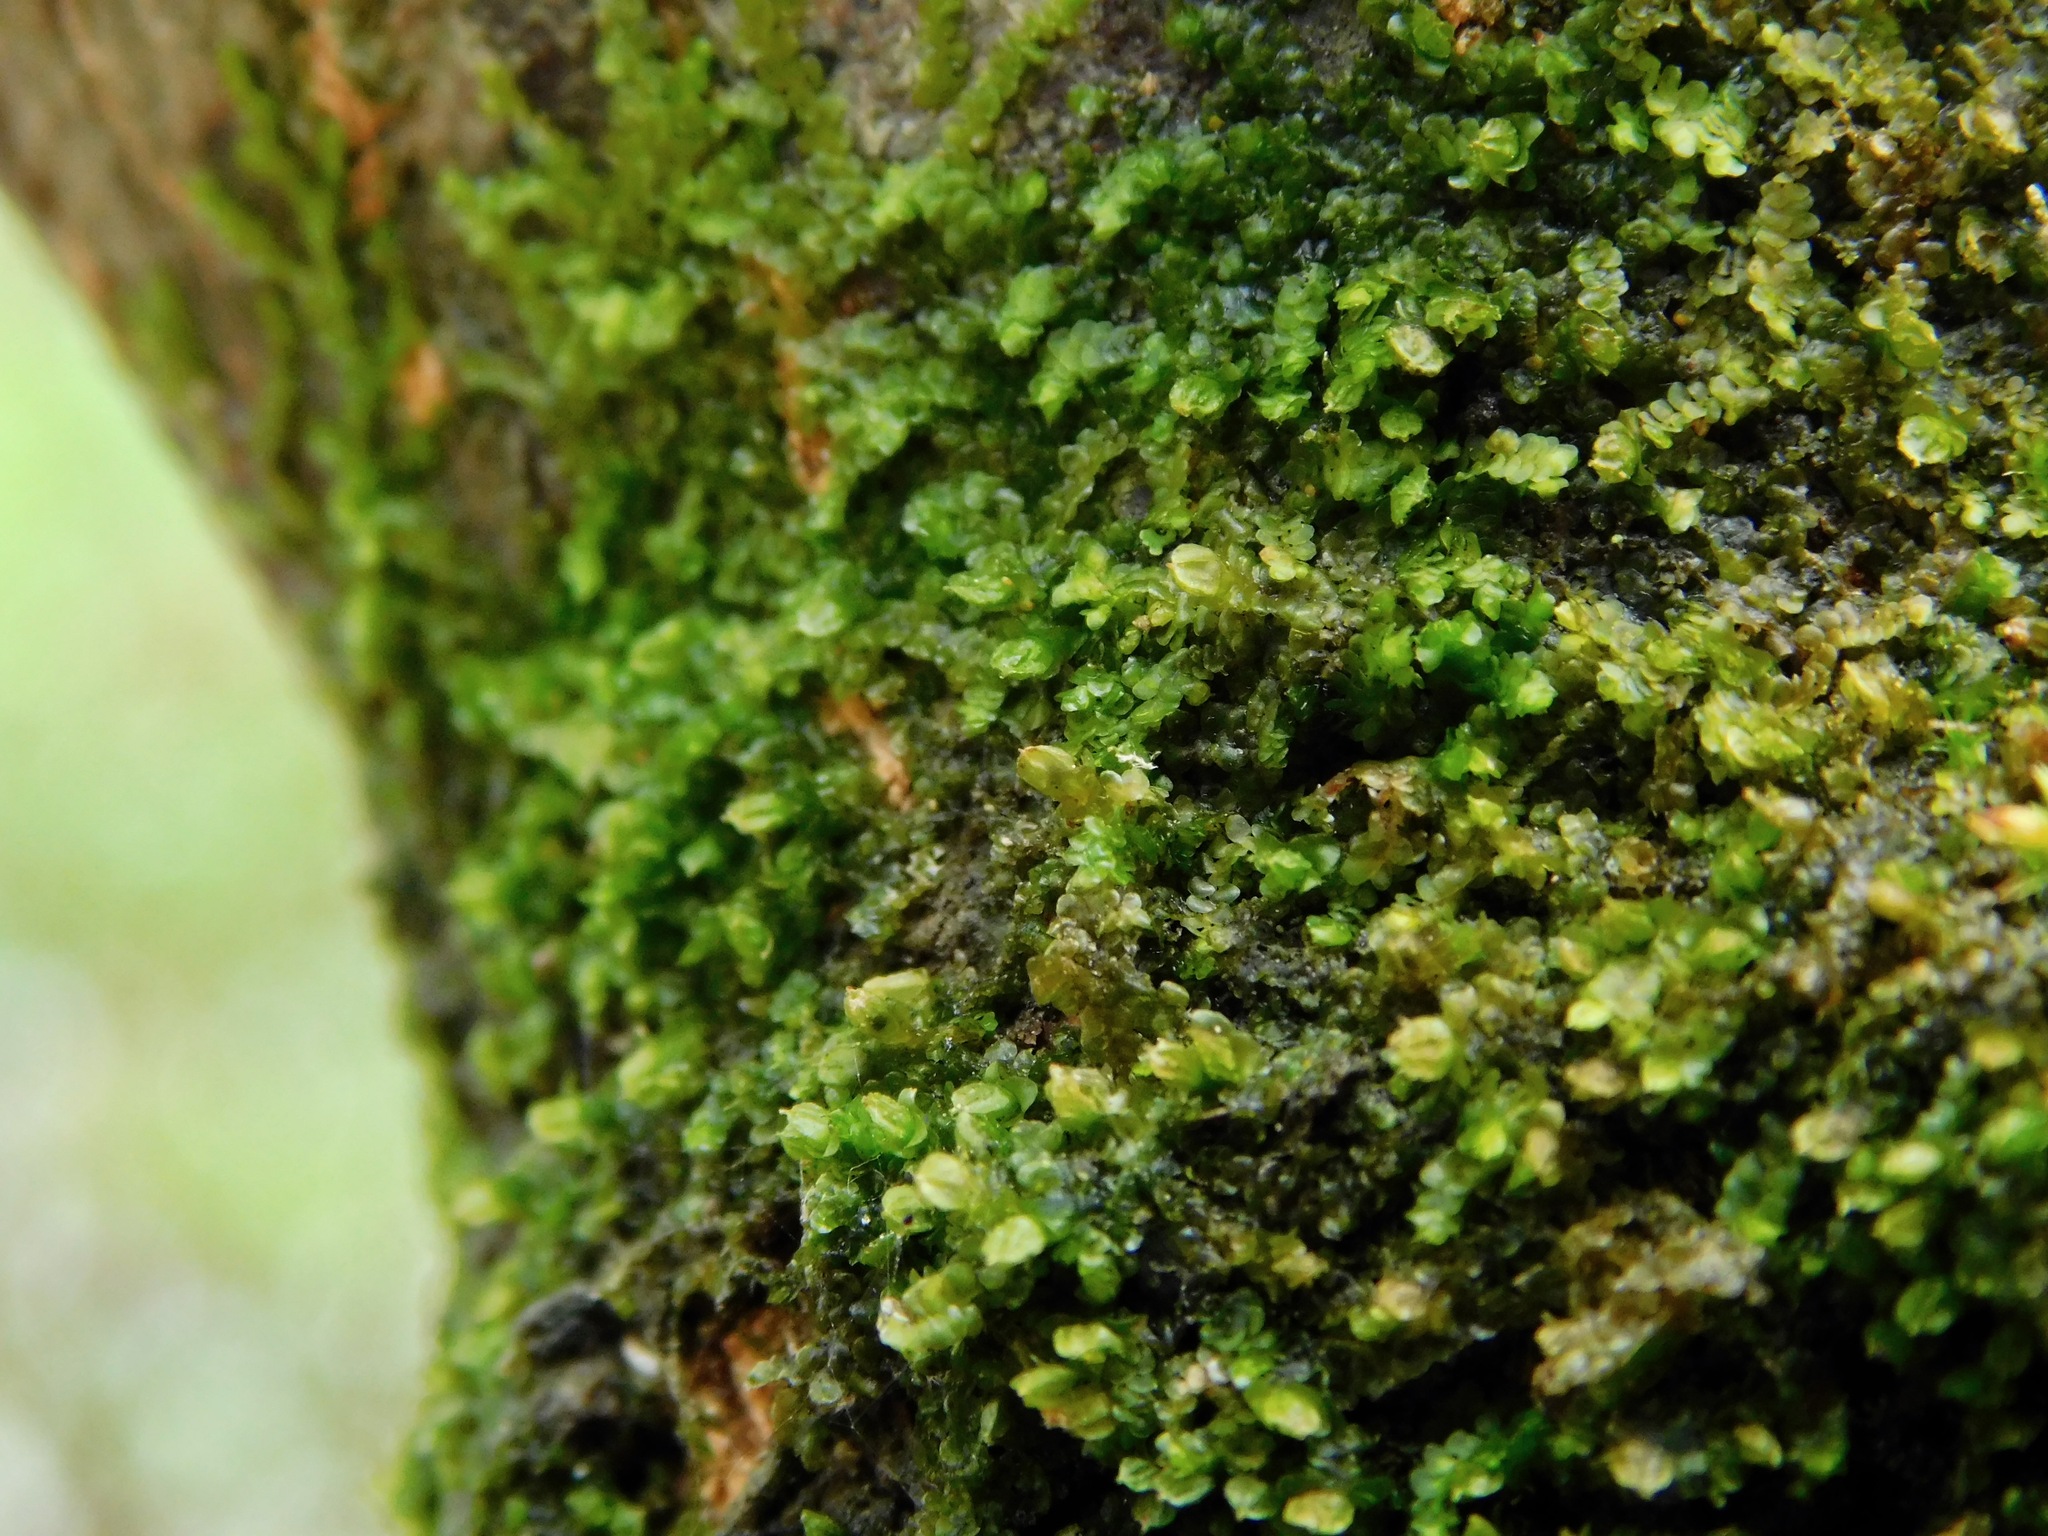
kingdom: Plantae
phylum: Marchantiophyta
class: Jungermanniopsida
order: Porellales
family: Frullaniaceae
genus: Frullania
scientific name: Frullania bolanderi
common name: Bolander s scalewort
